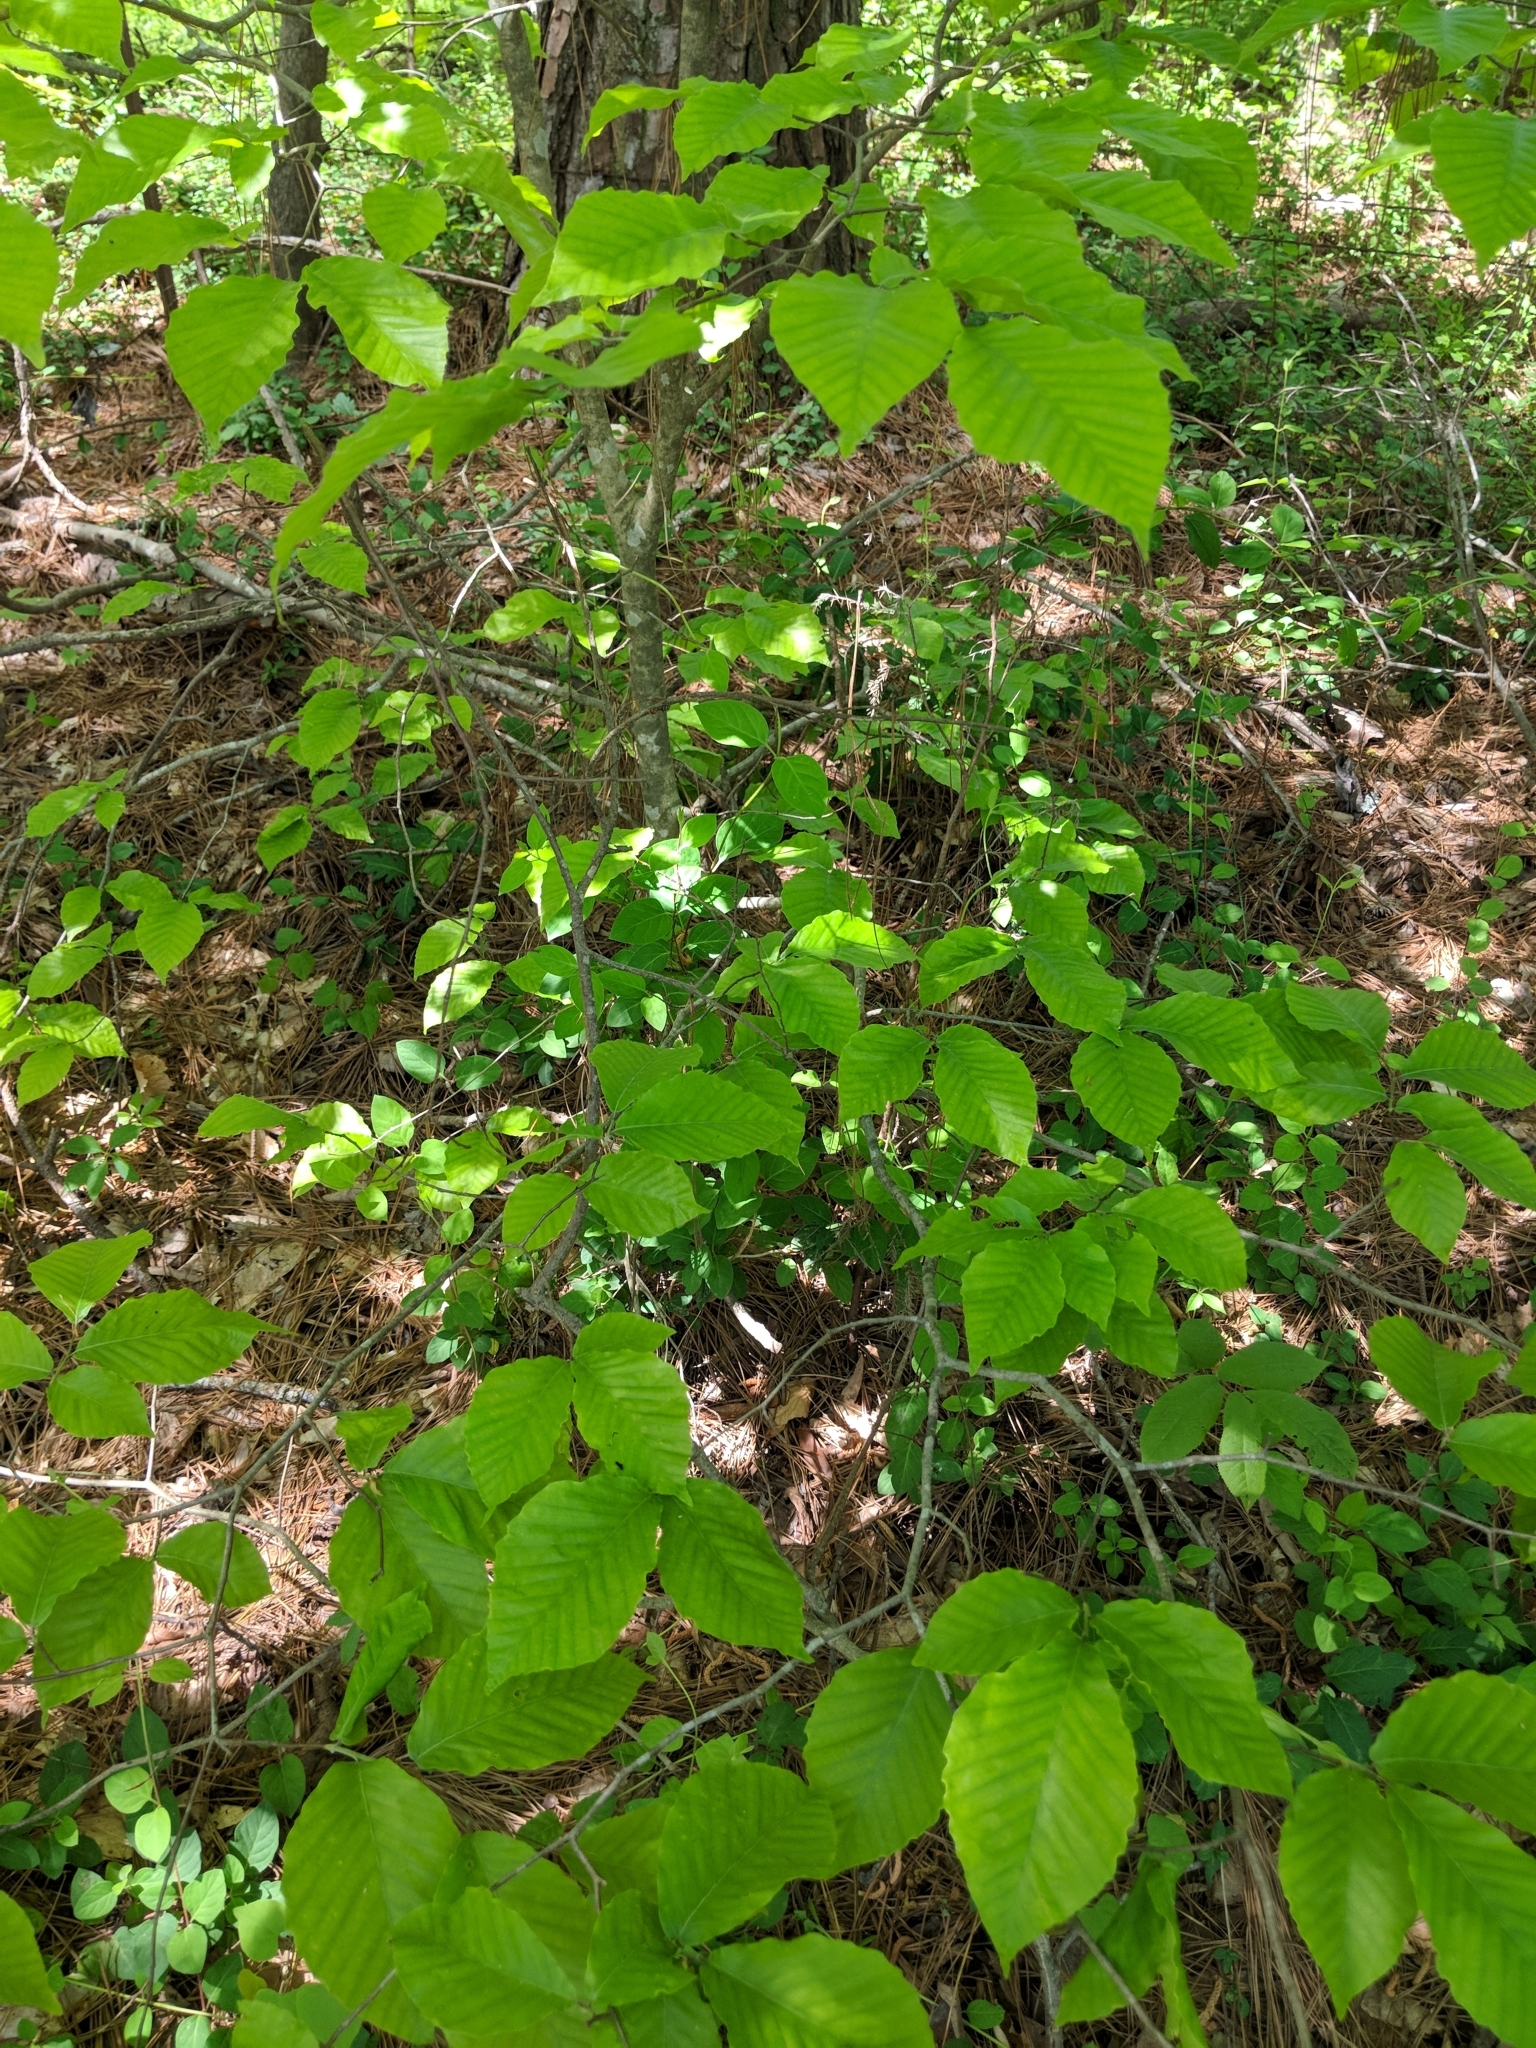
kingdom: Plantae
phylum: Tracheophyta
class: Magnoliopsida
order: Fagales
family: Fagaceae
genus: Fagus
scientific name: Fagus grandifolia
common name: American beech
